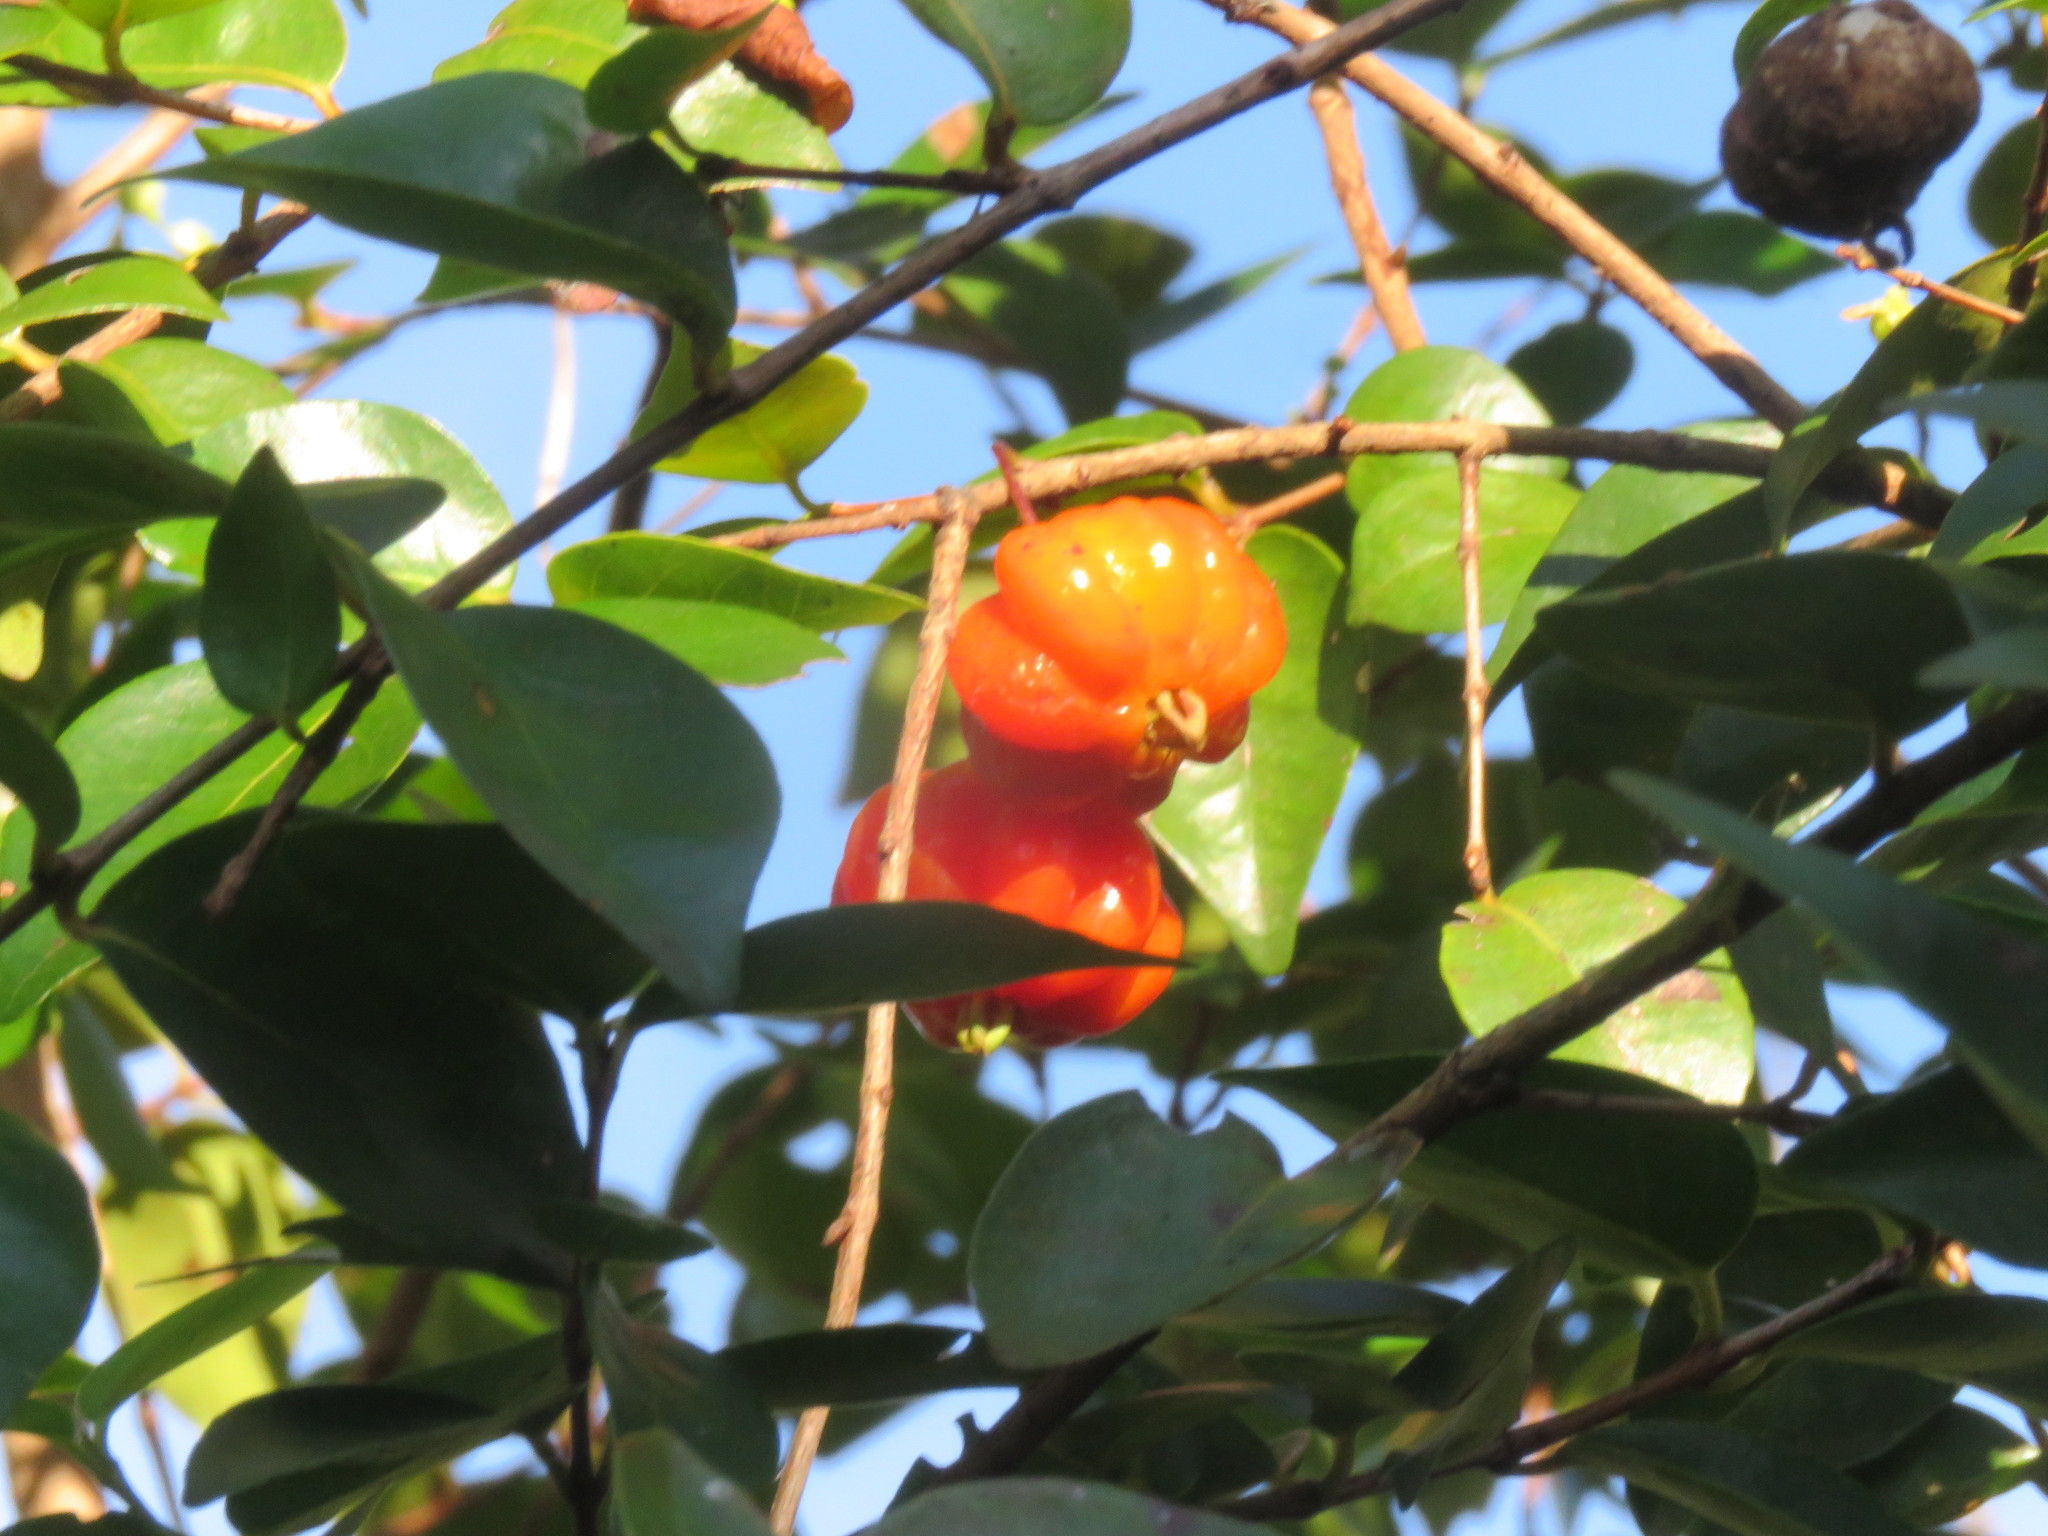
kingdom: Plantae
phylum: Tracheophyta
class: Magnoliopsida
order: Myrtales
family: Myrtaceae
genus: Eugenia
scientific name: Eugenia uniflora
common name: Surinam cherry
